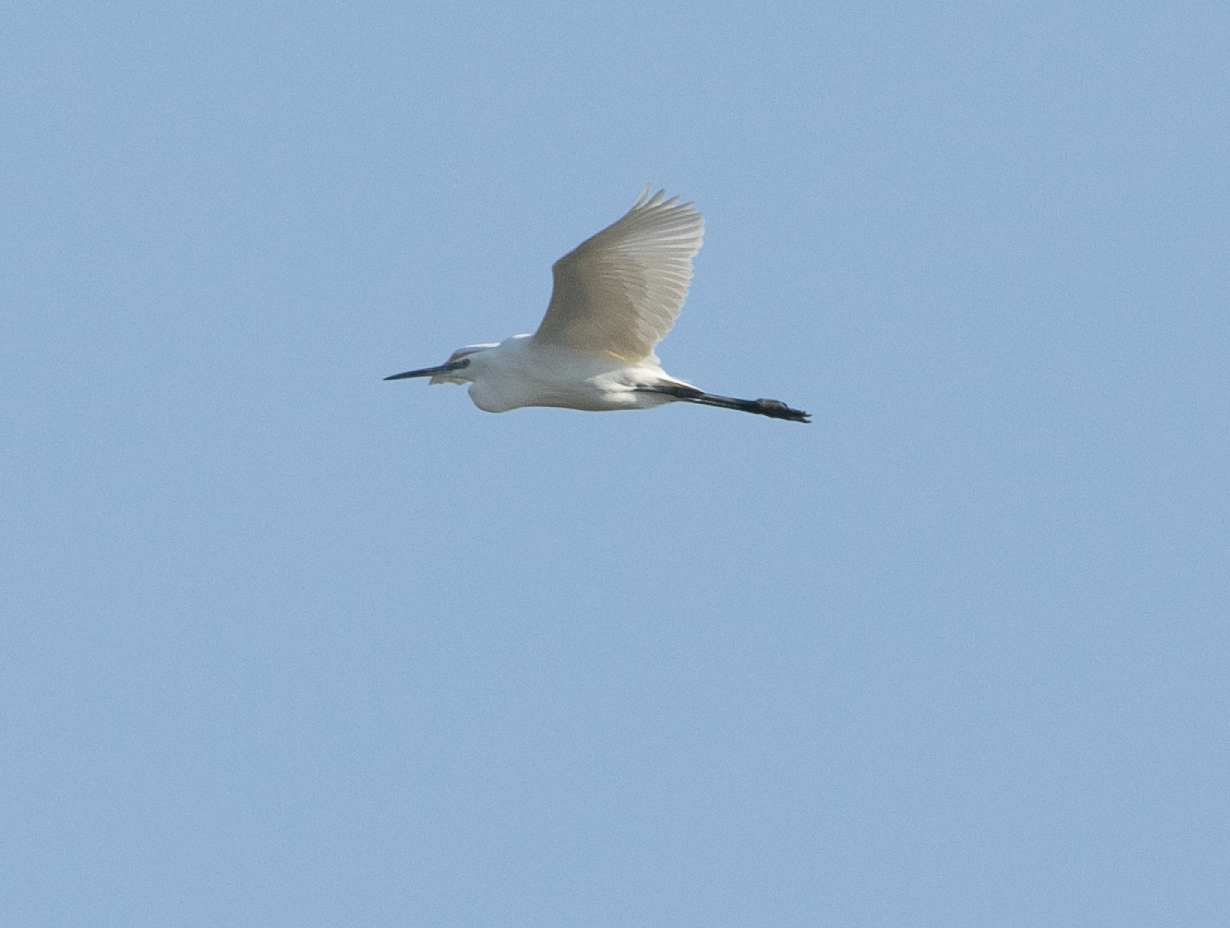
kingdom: Animalia
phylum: Chordata
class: Aves
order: Pelecaniformes
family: Ardeidae
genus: Egretta
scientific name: Egretta garzetta
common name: Little egret
